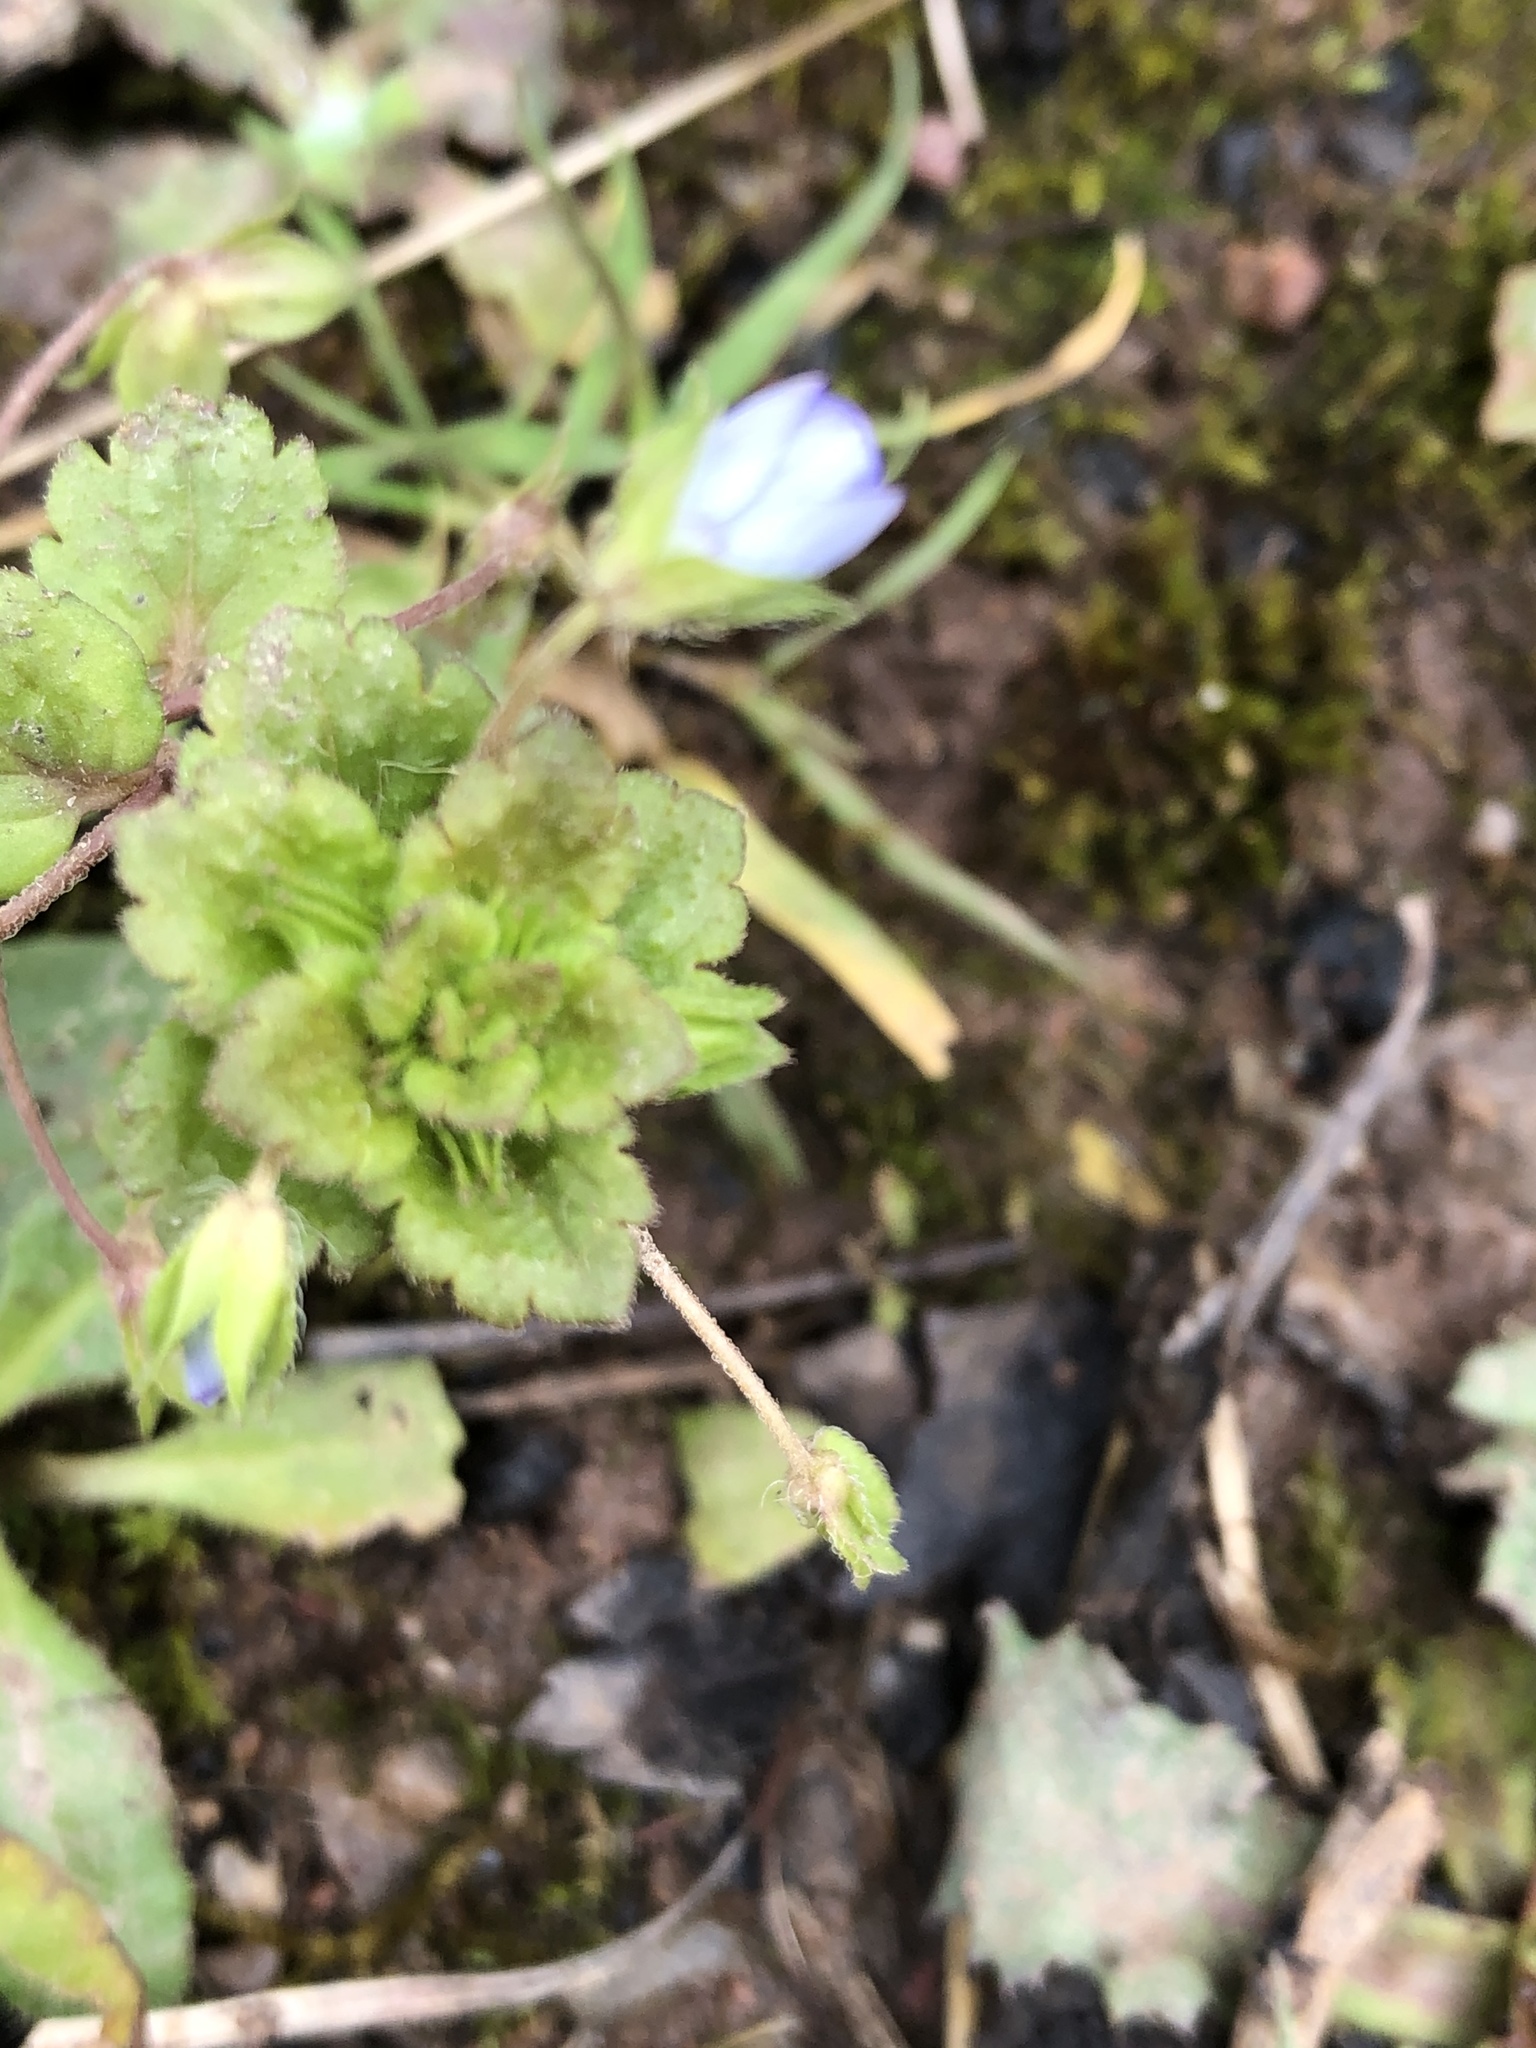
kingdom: Plantae
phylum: Tracheophyta
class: Magnoliopsida
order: Lamiales
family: Plantaginaceae
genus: Veronica
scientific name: Veronica persica
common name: Common field-speedwell
